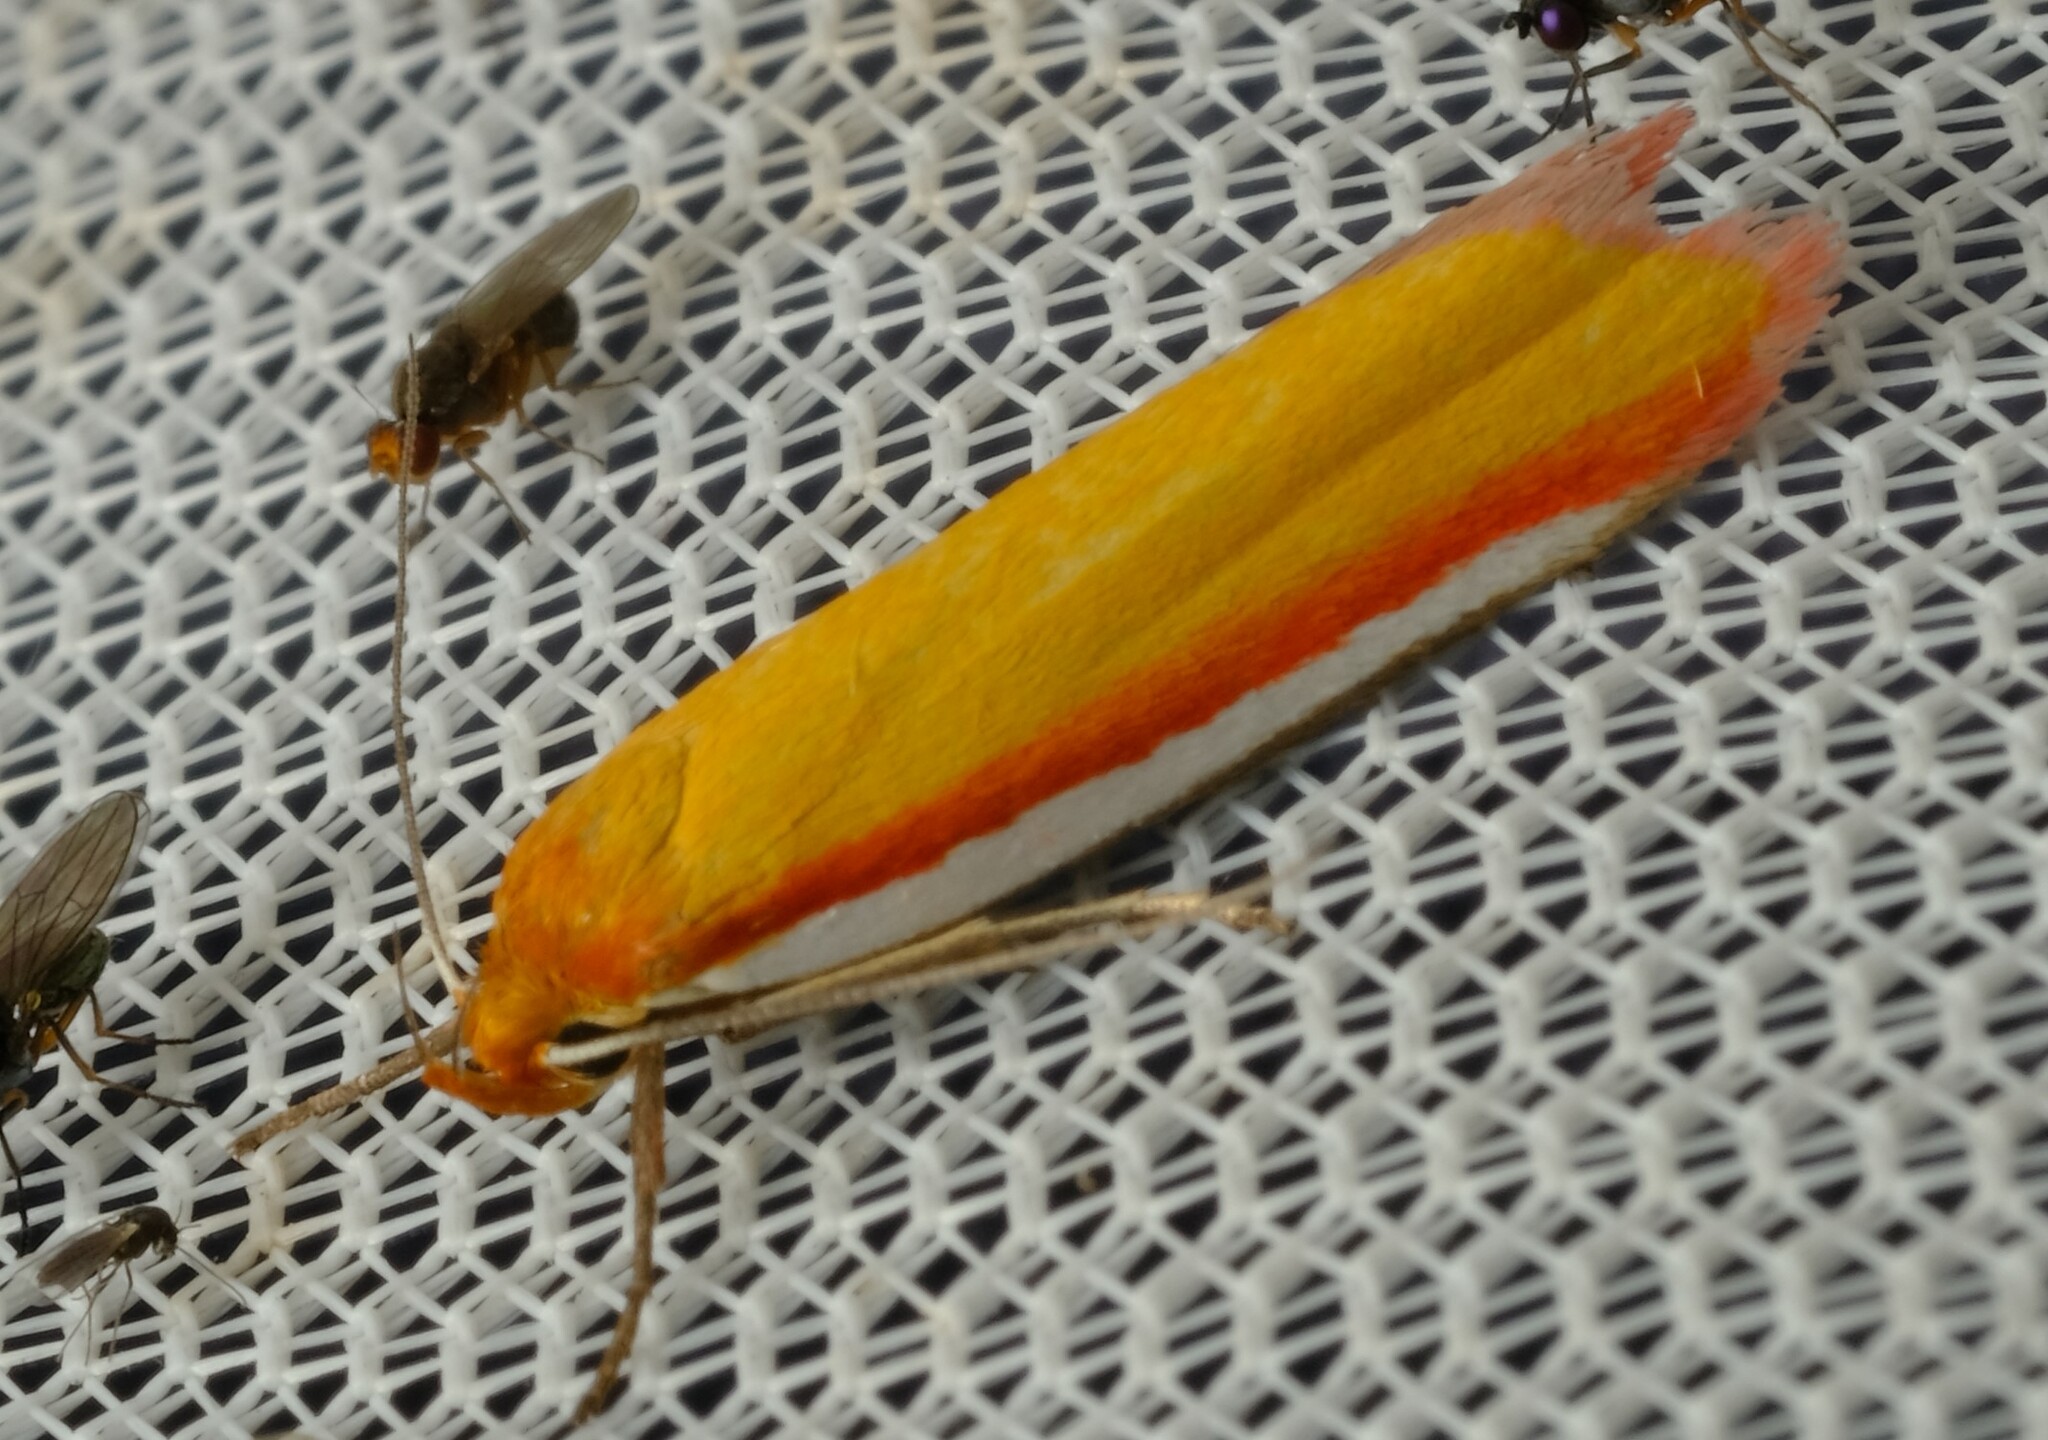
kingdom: Animalia
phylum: Arthropoda
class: Insecta
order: Lepidoptera
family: Oecophoridae
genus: Phytotrypa
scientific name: Phytotrypa pretiosella
